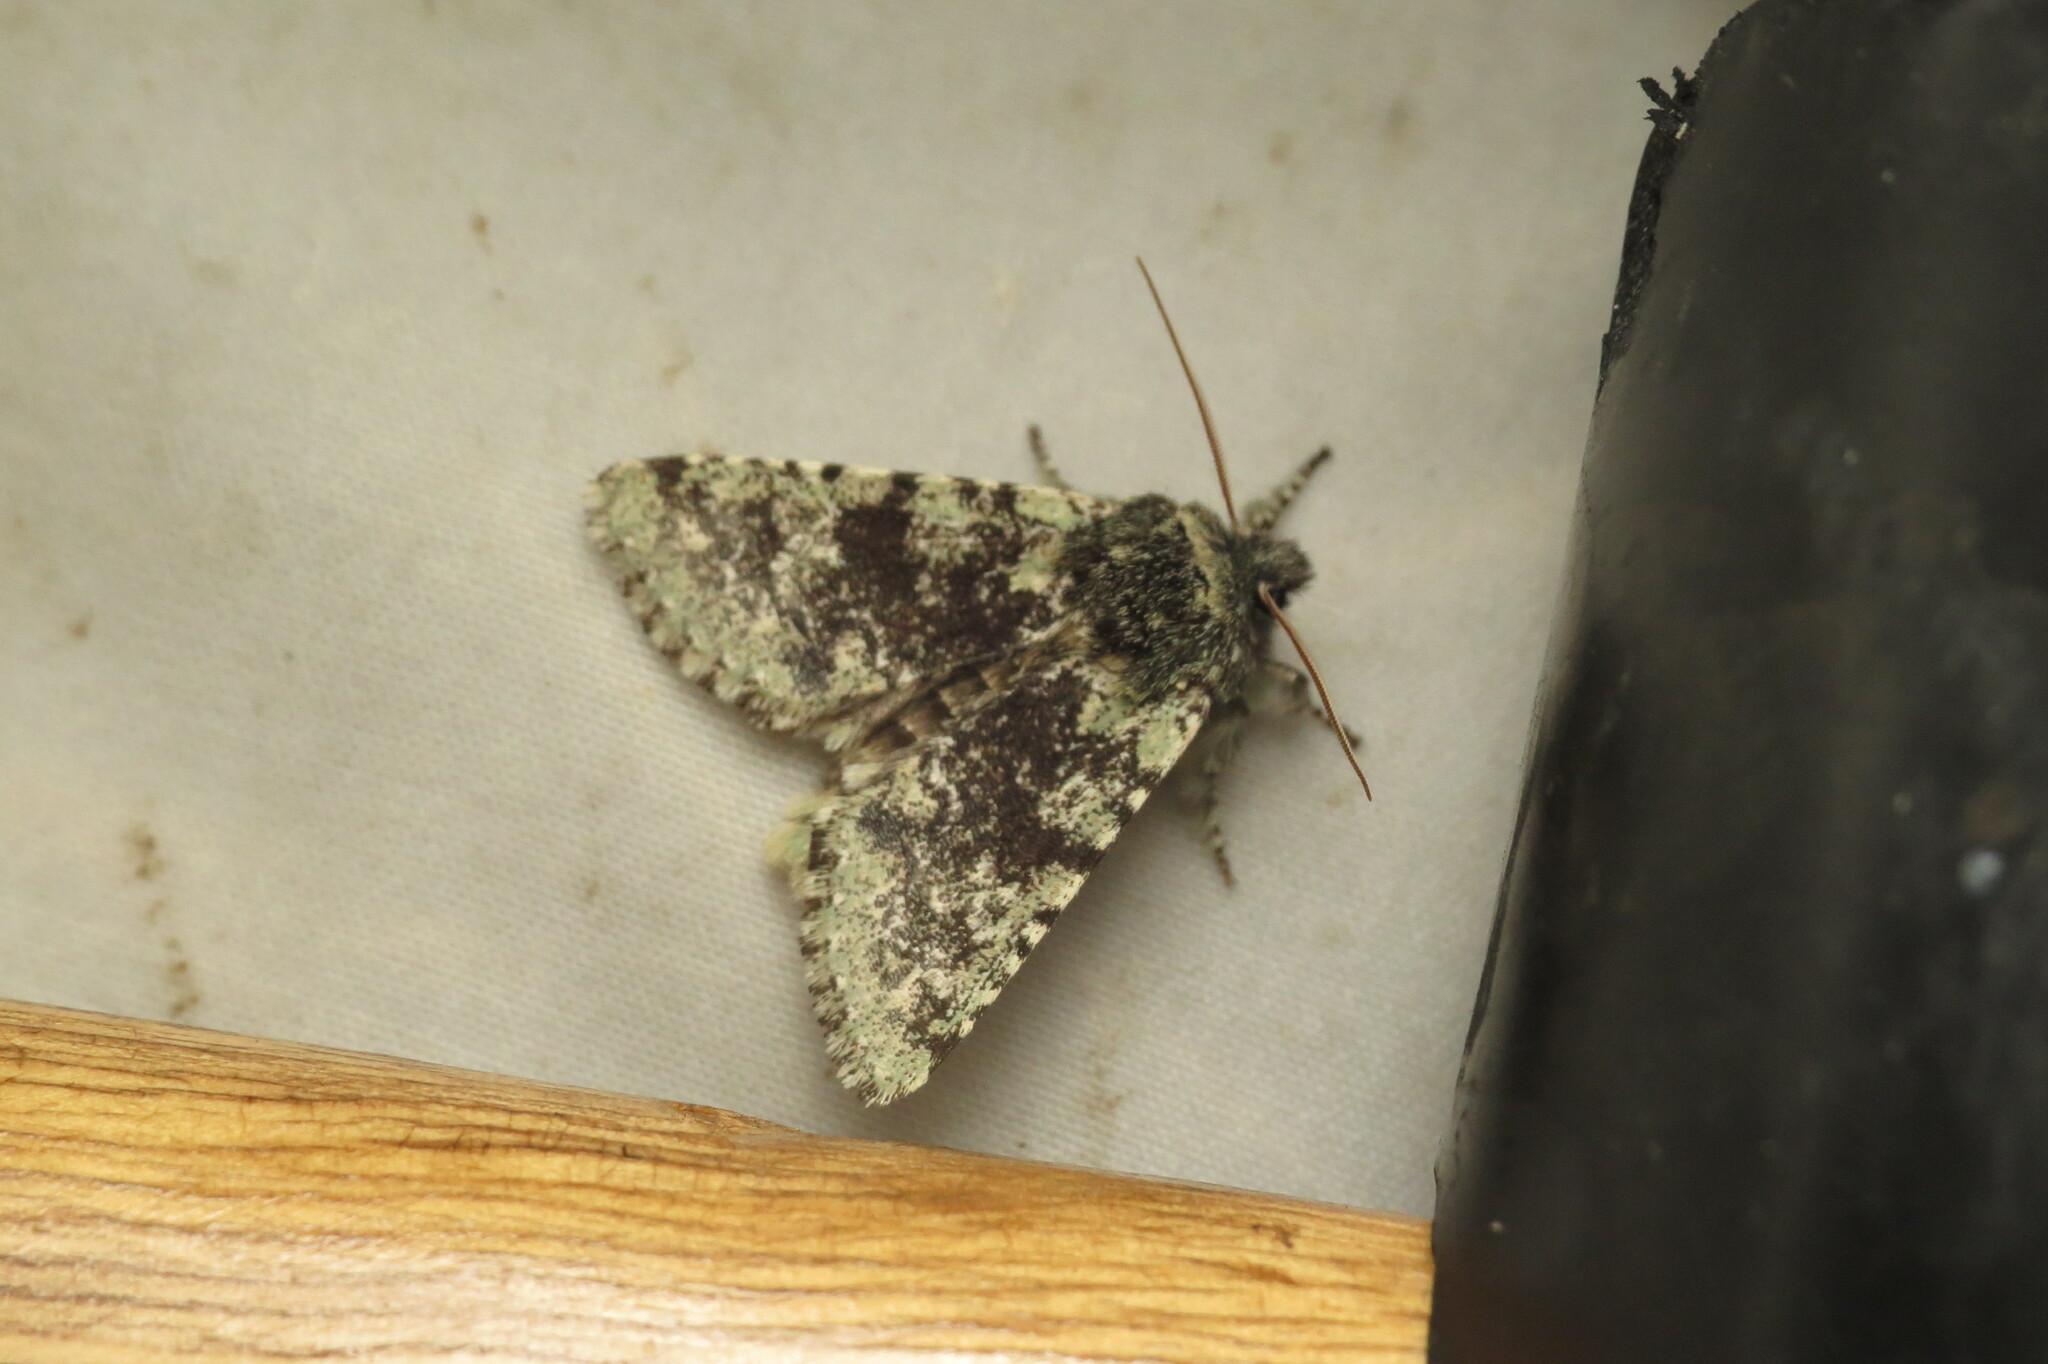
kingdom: Animalia
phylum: Arthropoda
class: Insecta
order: Lepidoptera
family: Noctuidae
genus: Feralia
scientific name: Feralia major
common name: Major sallow
